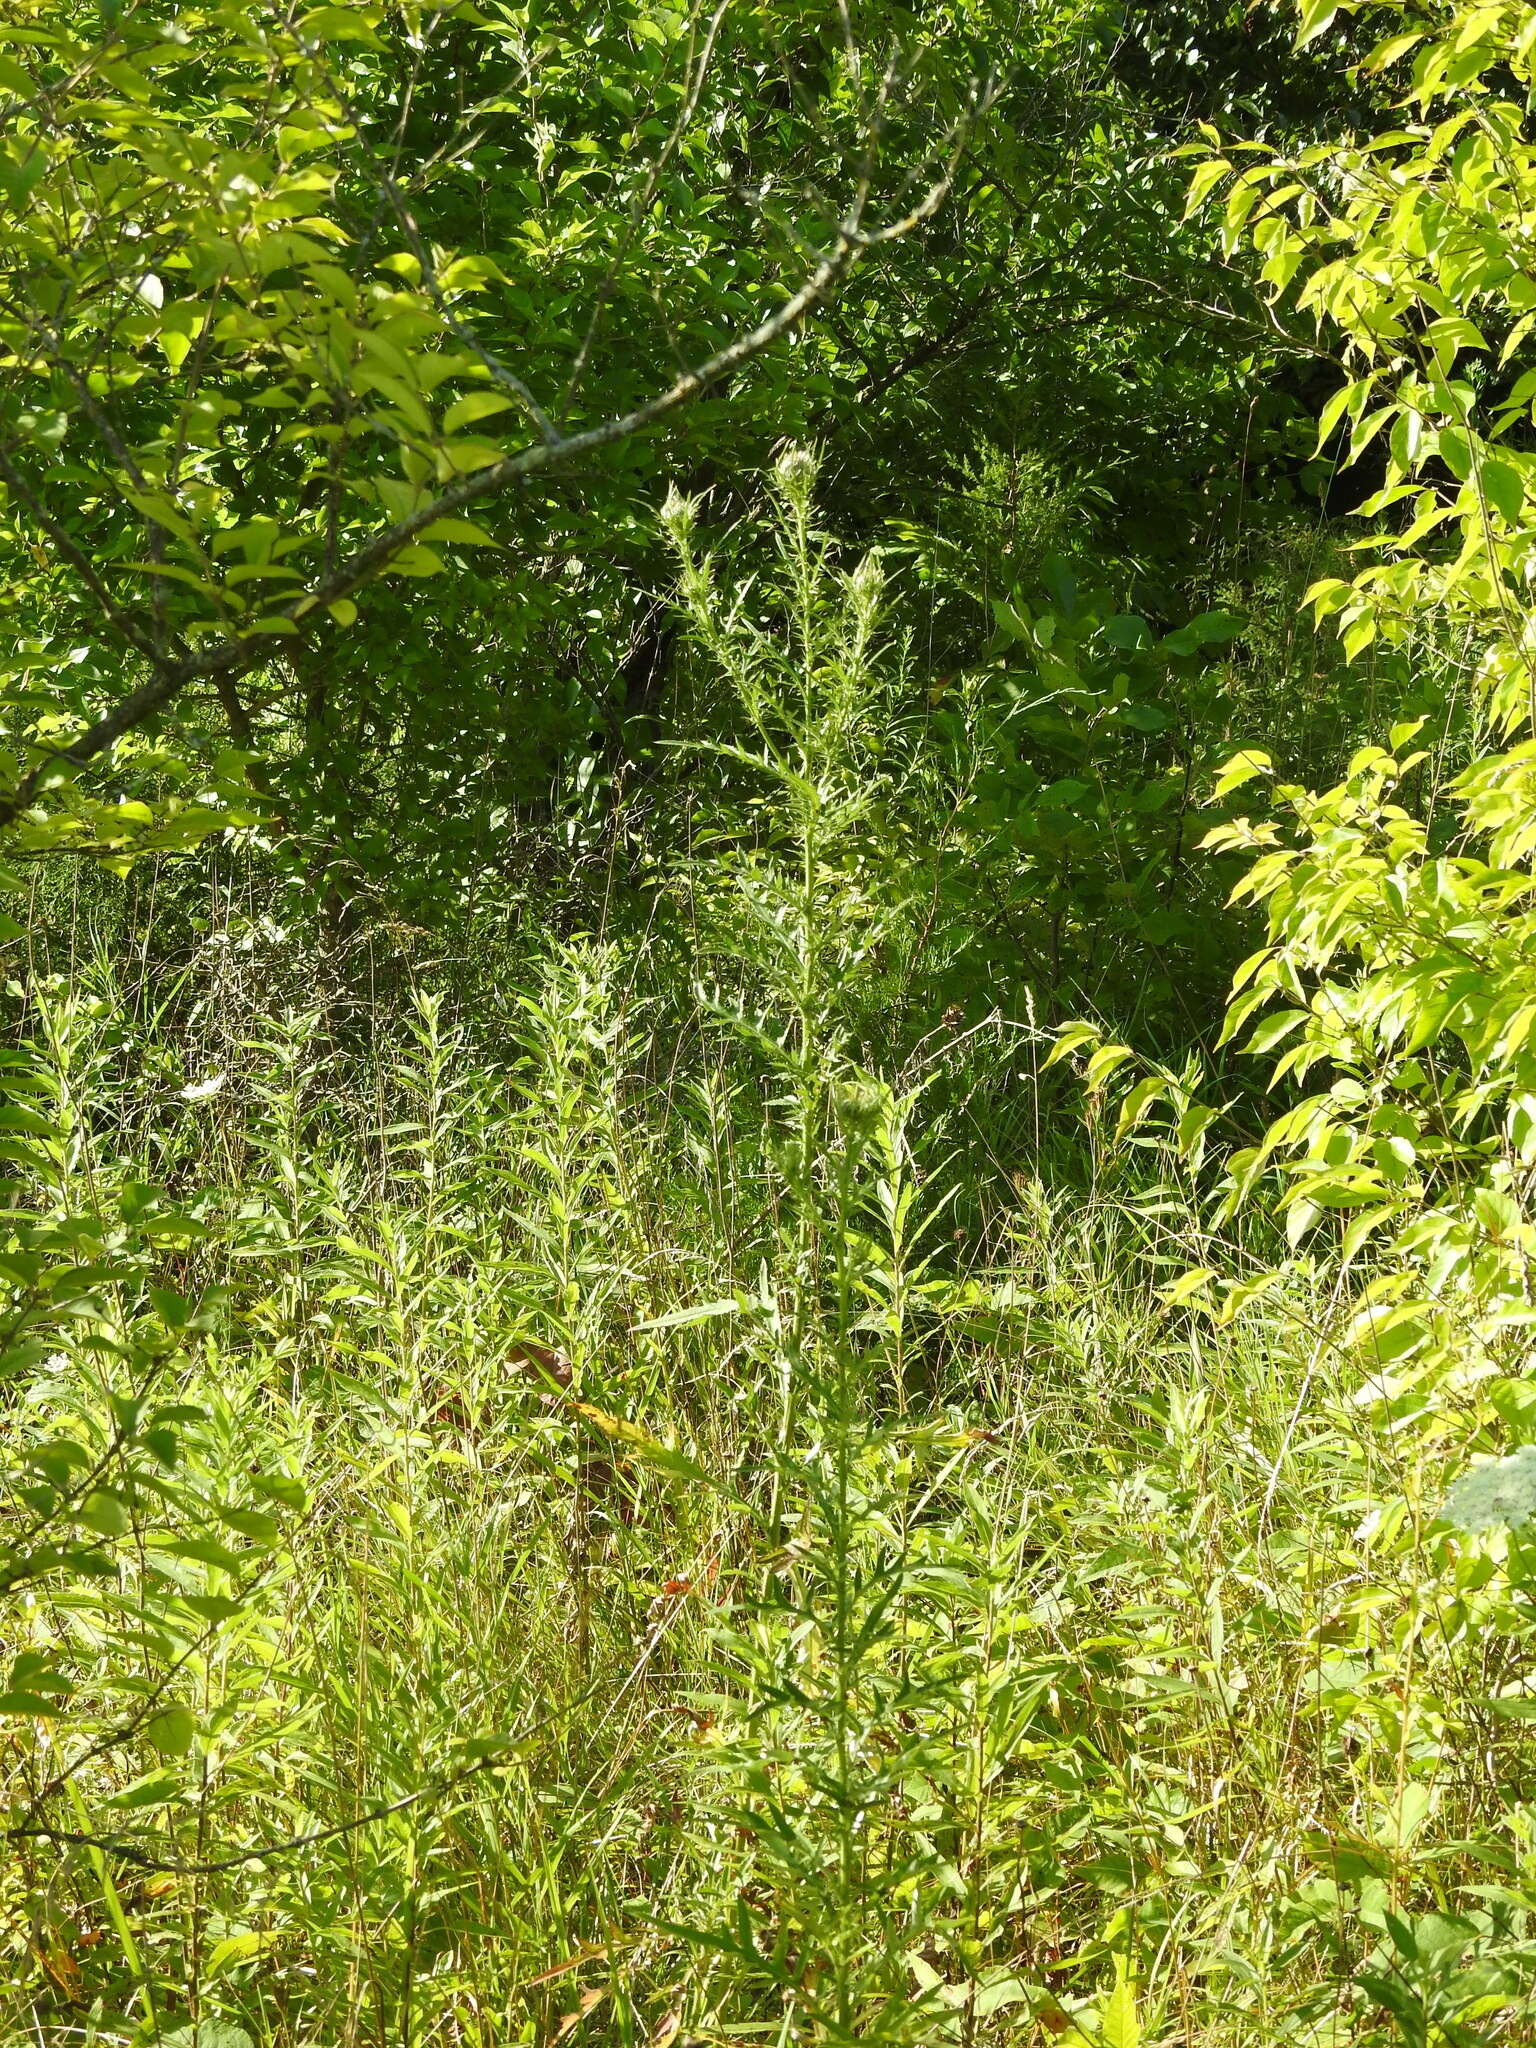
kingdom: Plantae
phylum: Tracheophyta
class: Magnoliopsida
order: Asterales
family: Asteraceae
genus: Cirsium
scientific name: Cirsium discolor
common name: Field thistle
